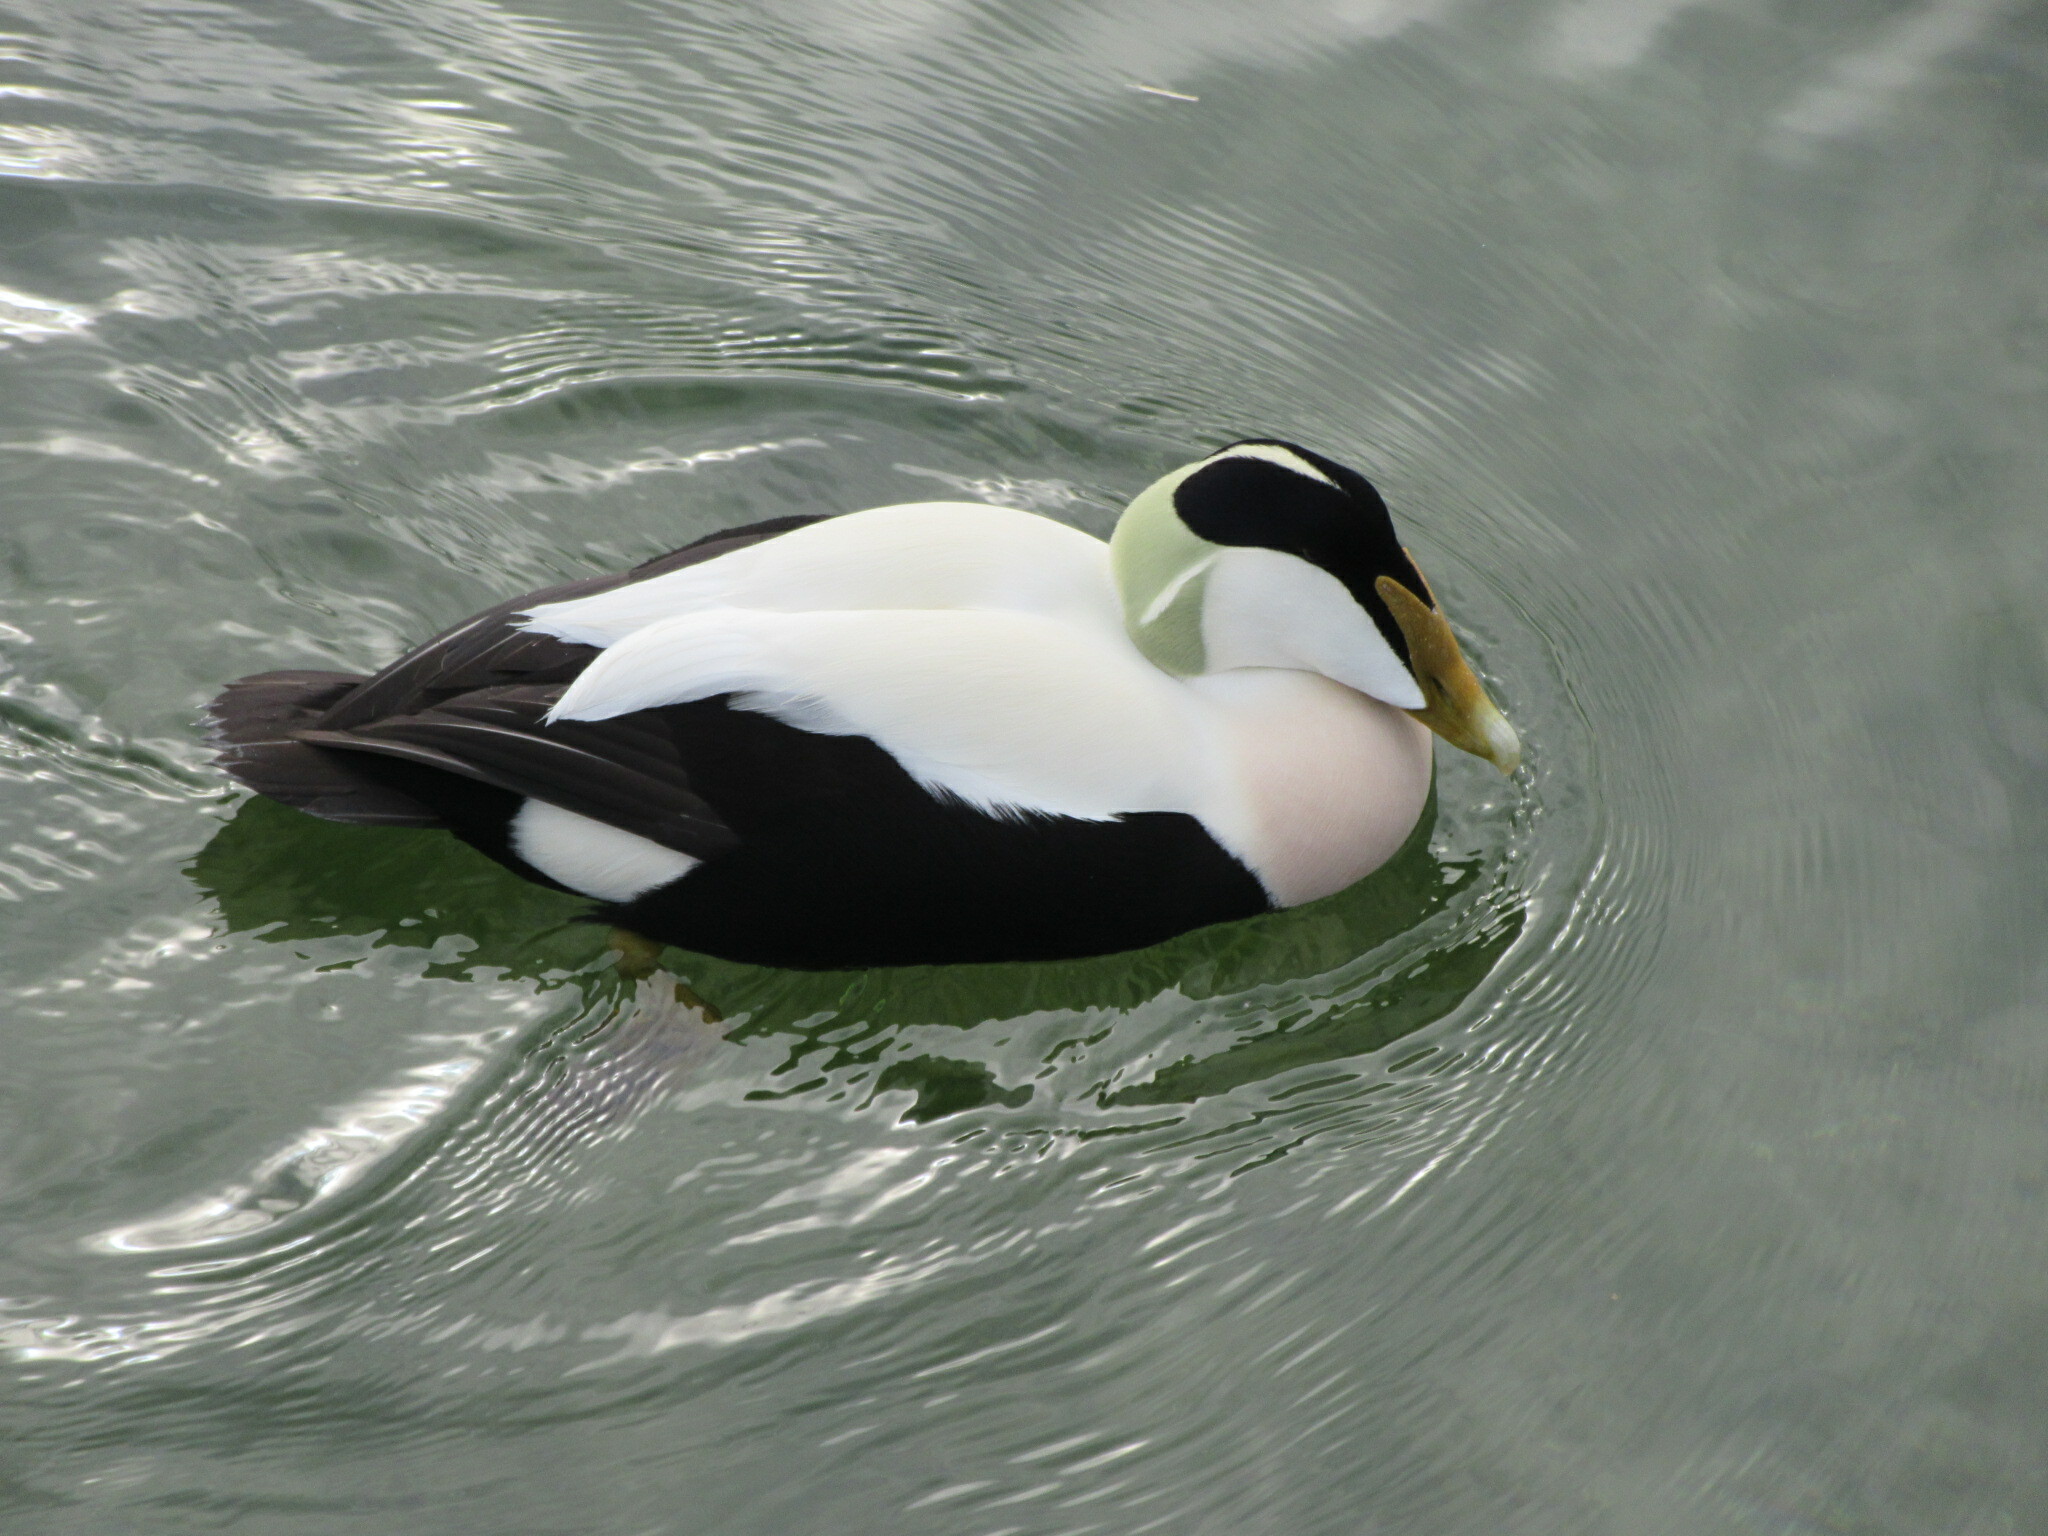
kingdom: Animalia
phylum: Chordata
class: Aves
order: Anseriformes
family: Anatidae
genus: Somateria
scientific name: Somateria mollissima
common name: Common eider
